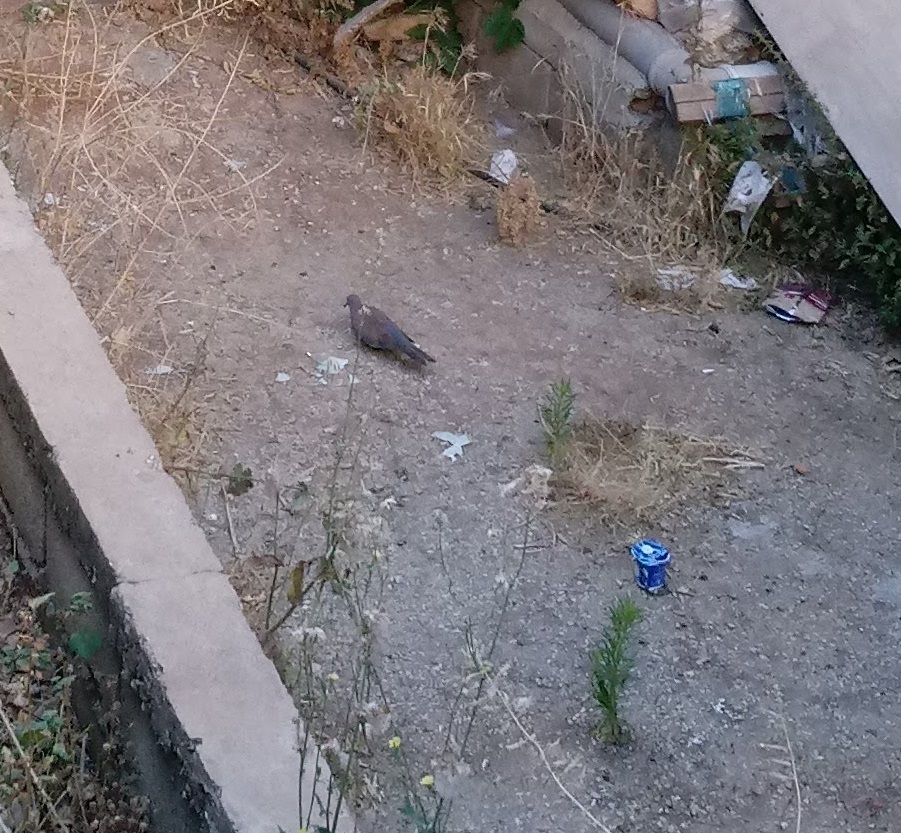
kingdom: Animalia
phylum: Chordata
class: Aves
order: Columbiformes
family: Columbidae
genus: Spilopelia
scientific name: Spilopelia senegalensis
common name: Laughing dove
